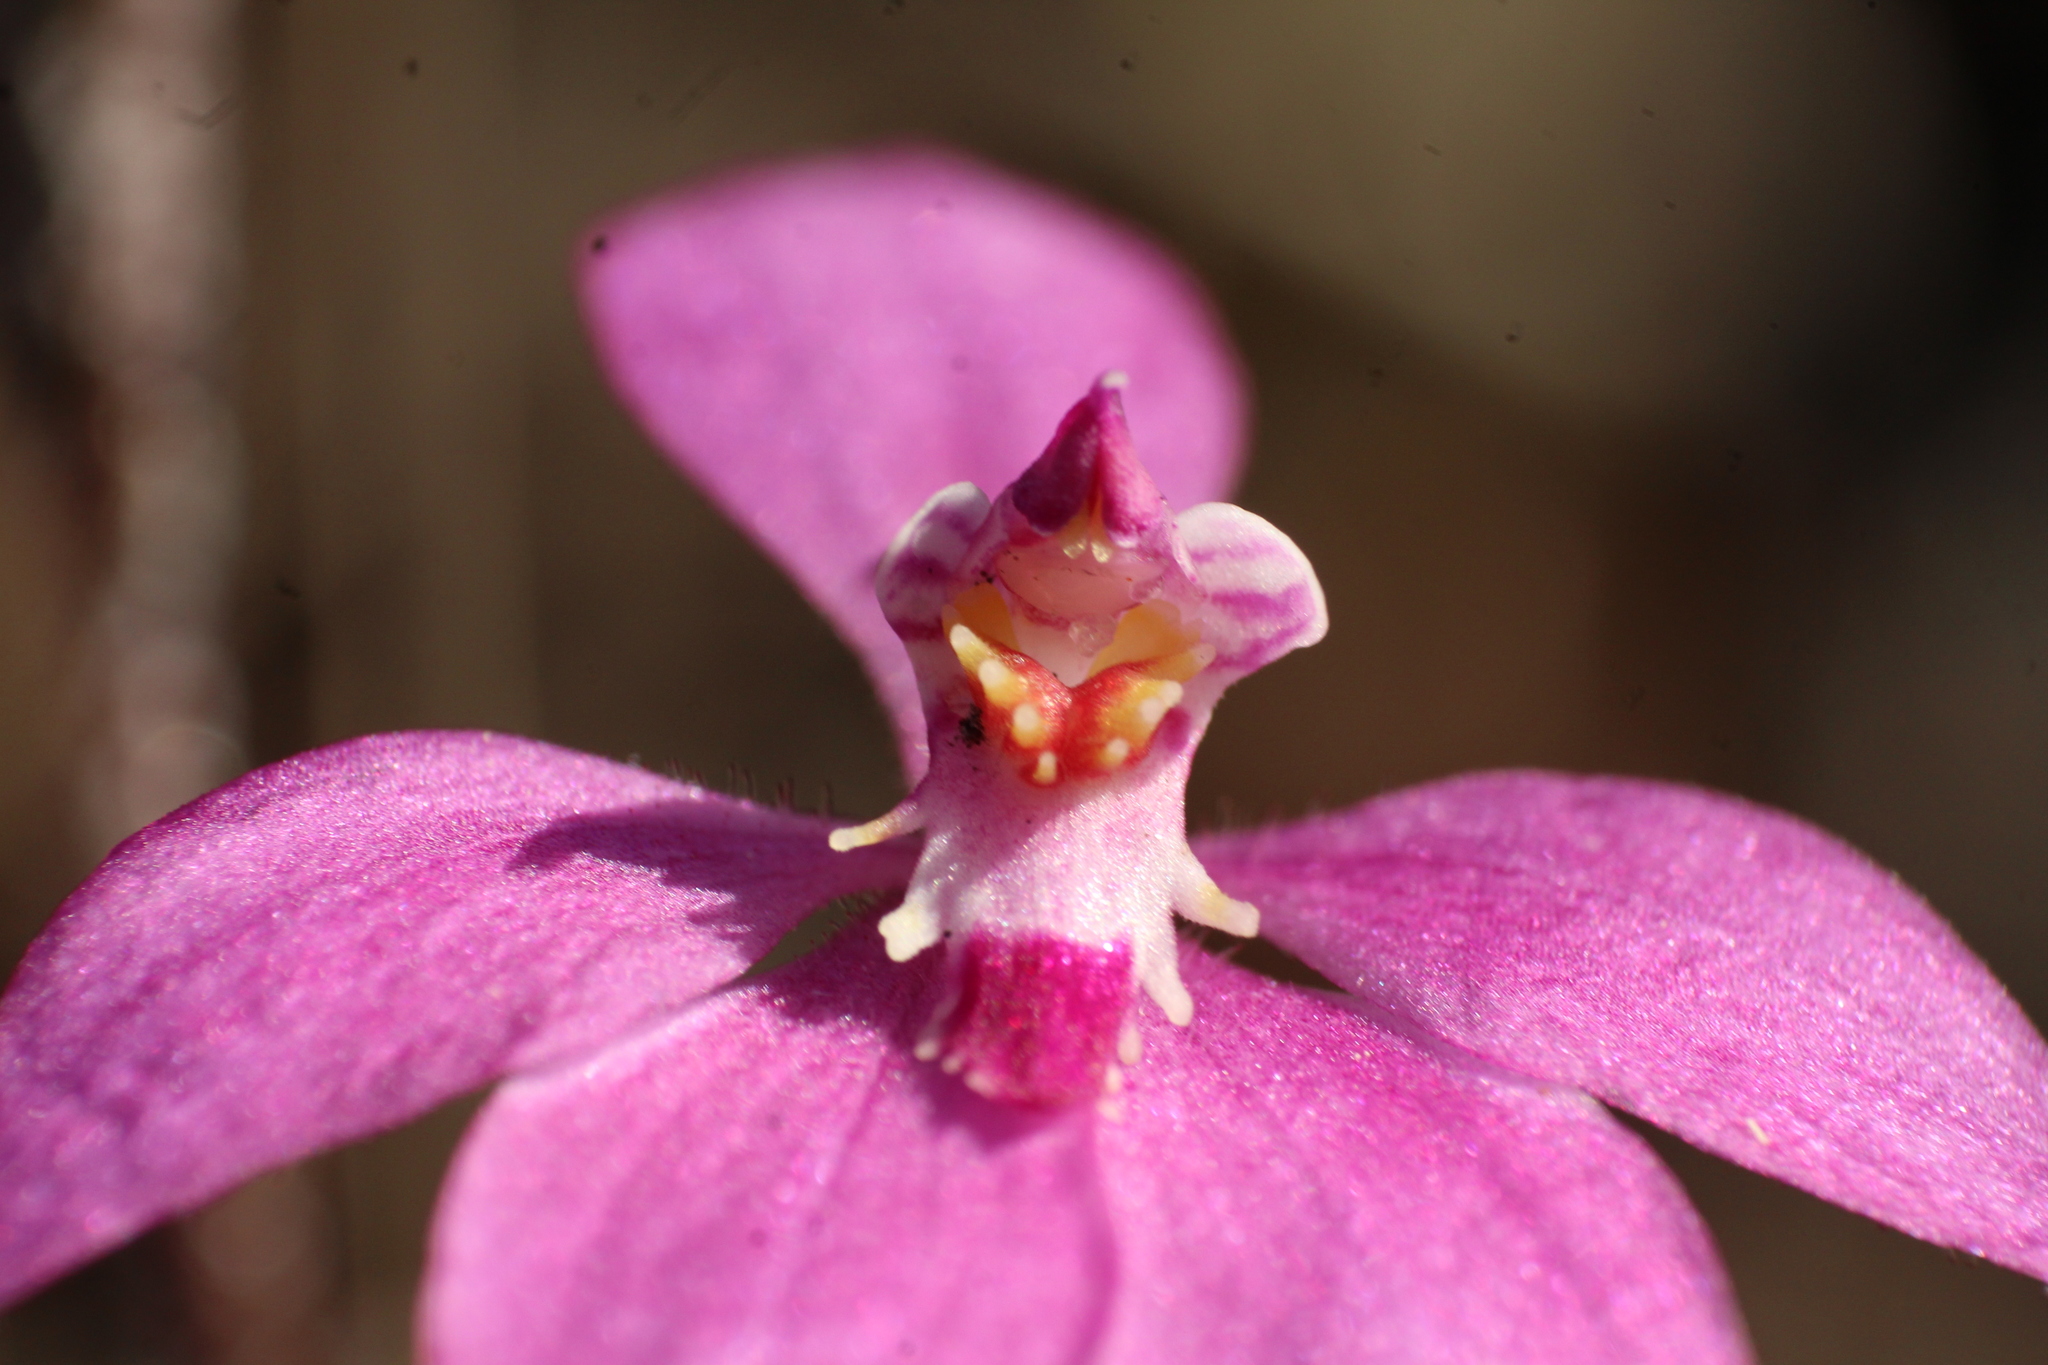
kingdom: Plantae
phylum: Tracheophyta
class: Liliopsida
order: Asparagales
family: Orchidaceae
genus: Caladenia
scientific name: Caladenia reptans
